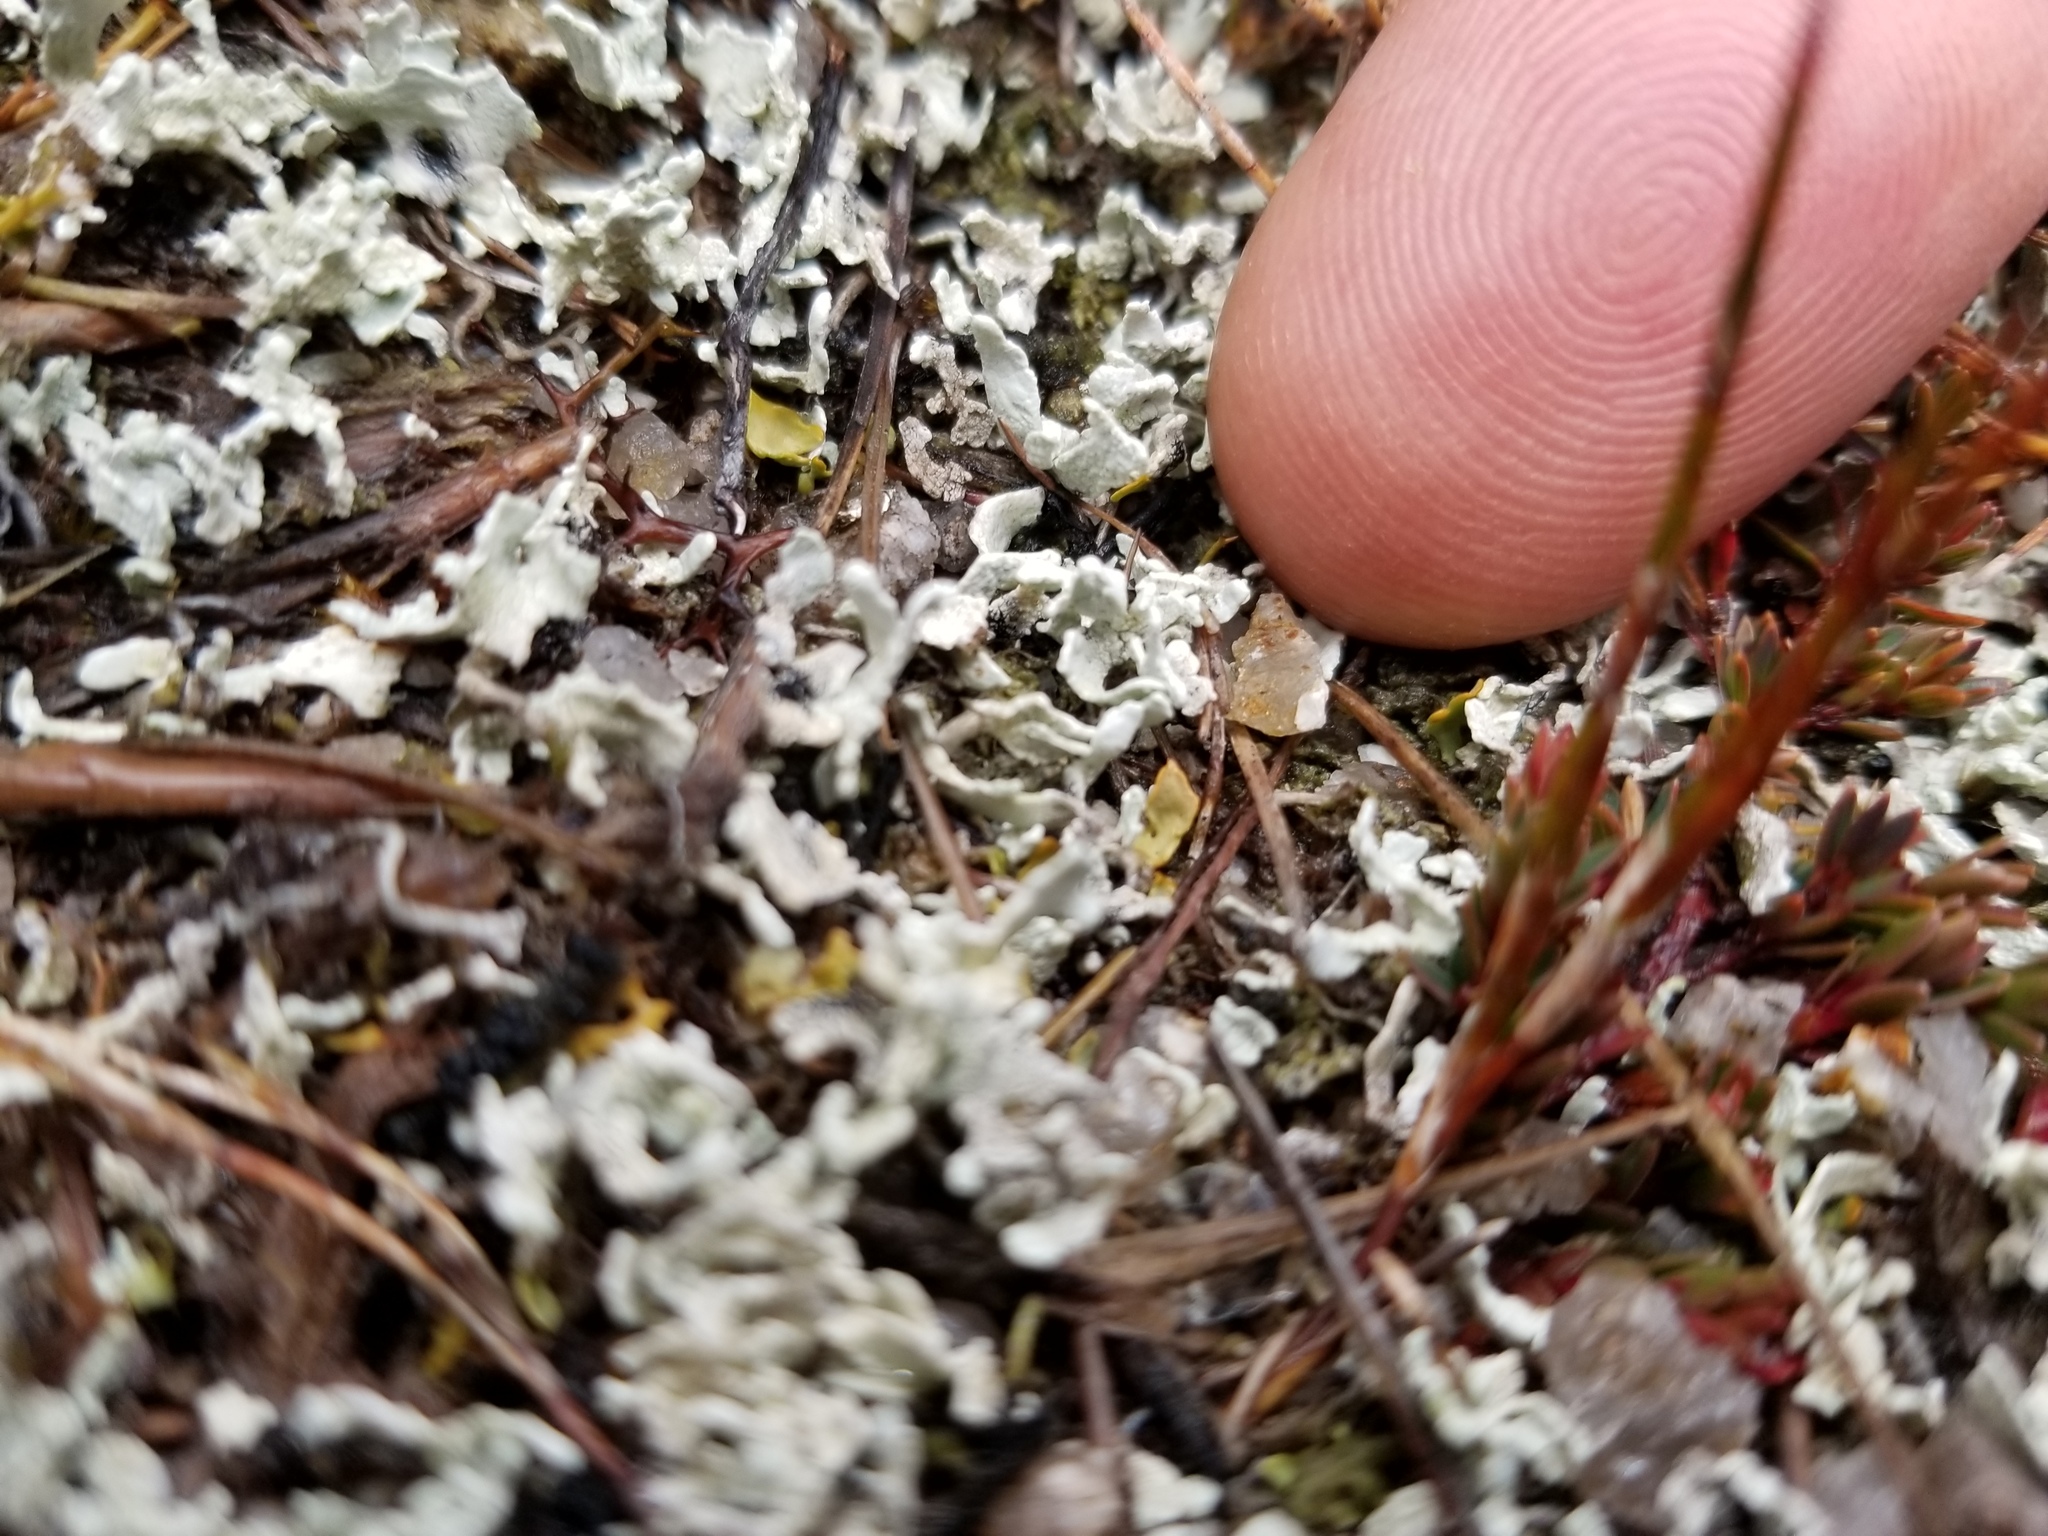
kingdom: Fungi
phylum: Ascomycota
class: Lecanoromycetes
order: Pertusariales
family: Icmadophilaceae
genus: Siphula
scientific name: Siphula
